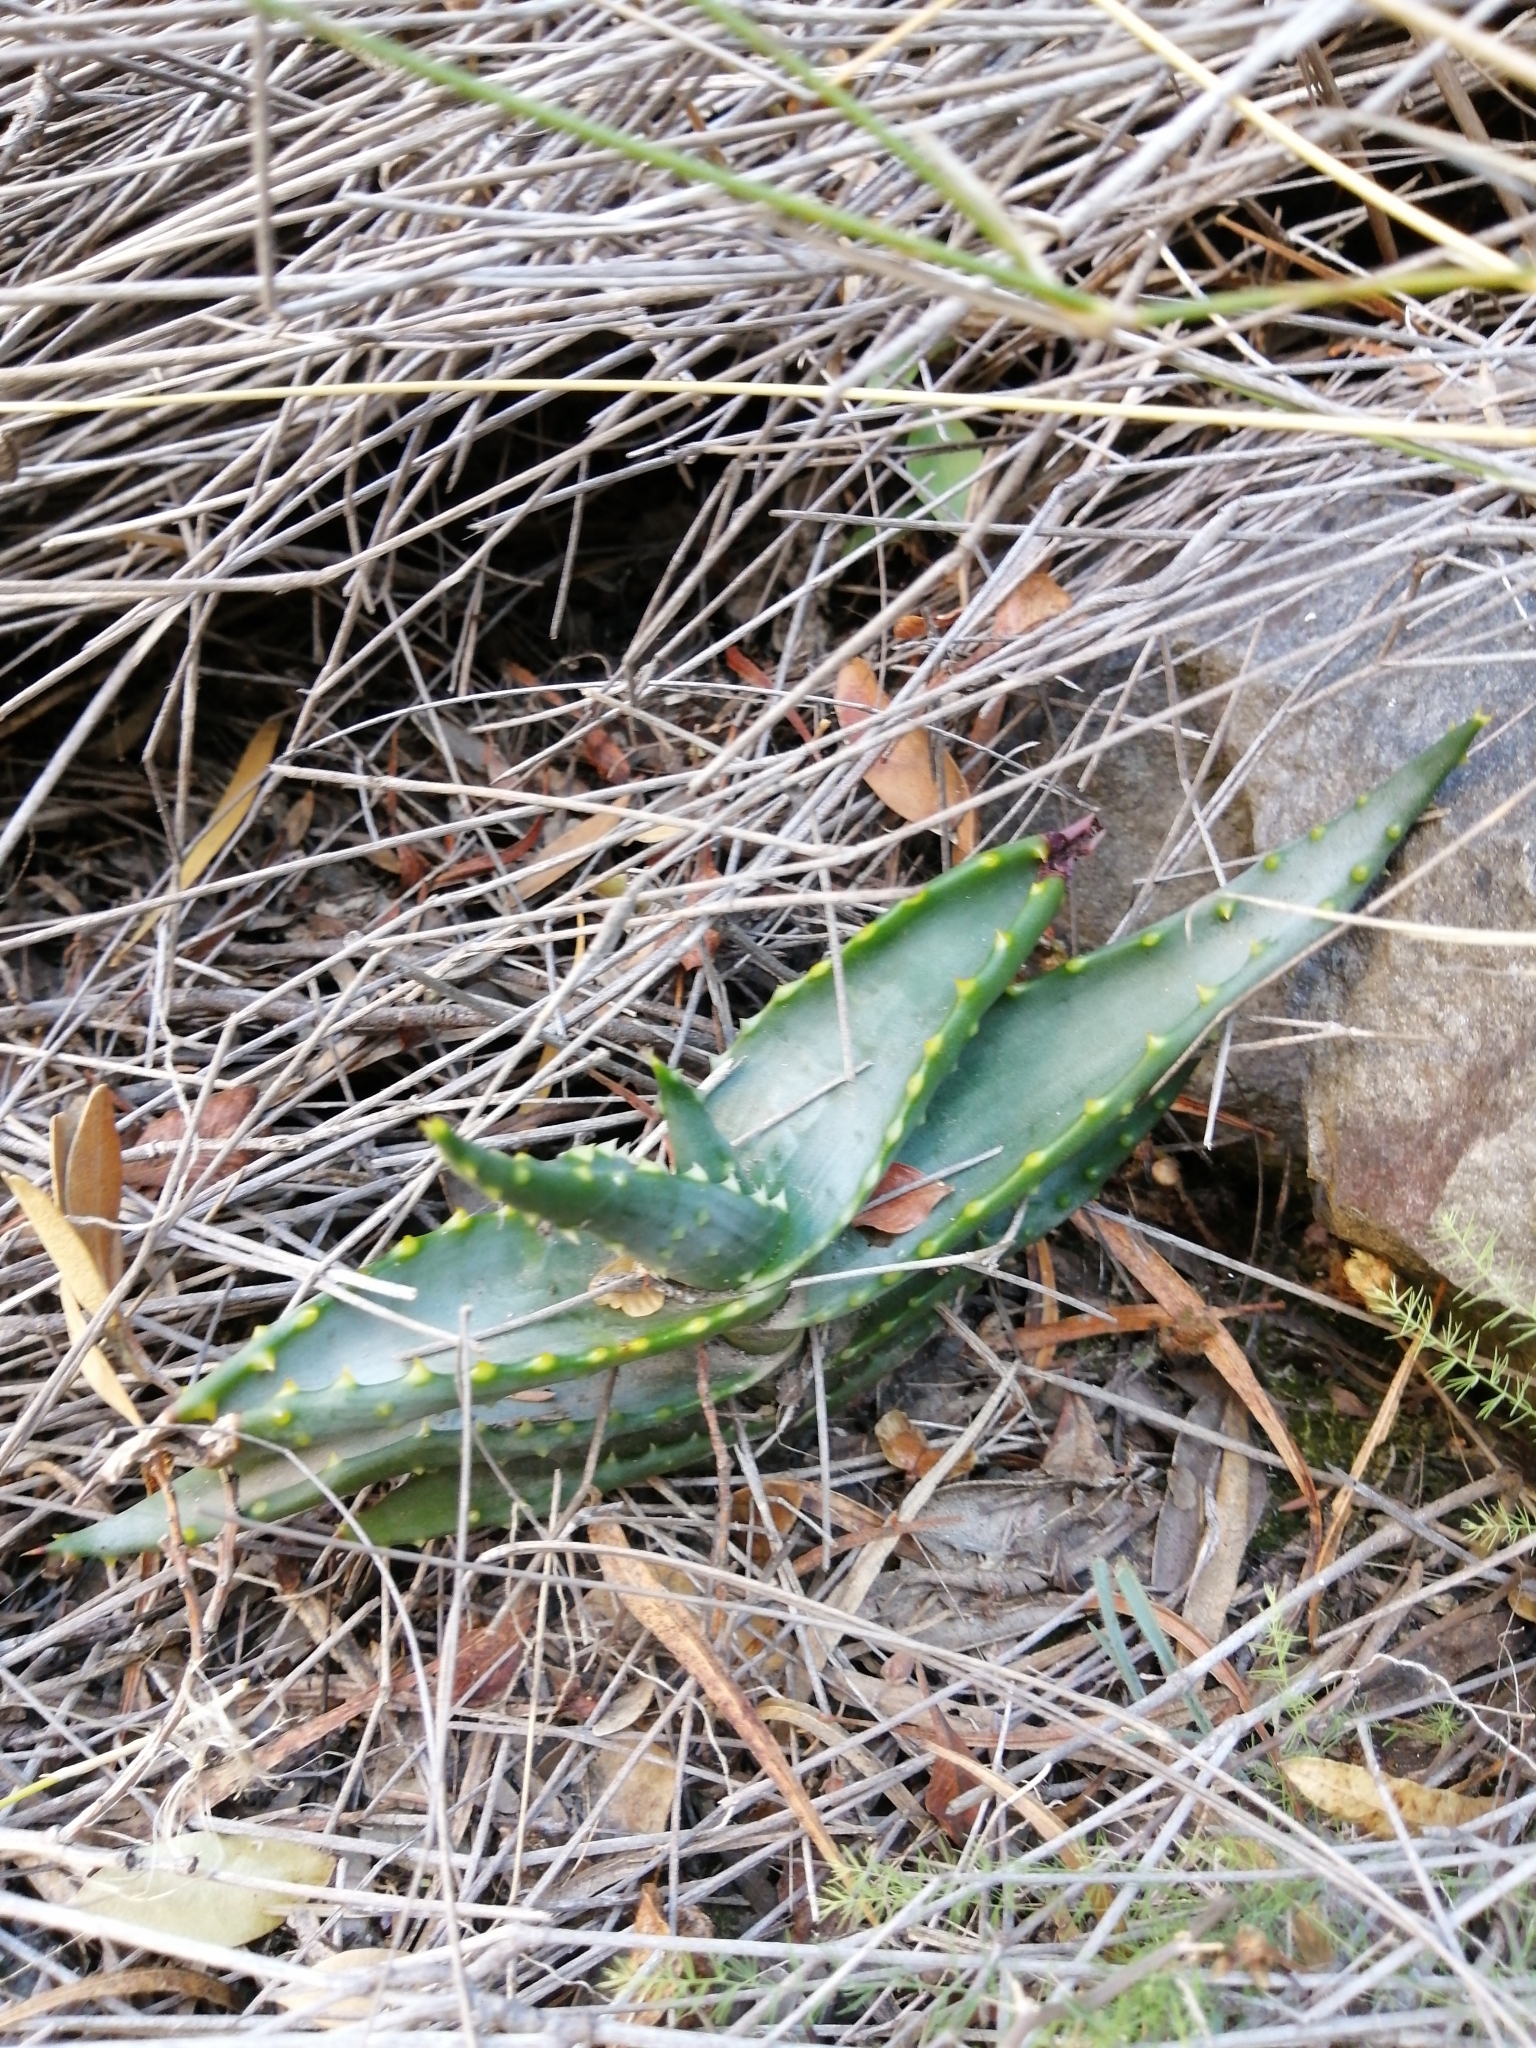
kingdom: Plantae
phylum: Tracheophyta
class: Liliopsida
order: Asparagales
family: Asphodelaceae
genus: Aloe
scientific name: Aloe perfoliata
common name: Mitra aloe
